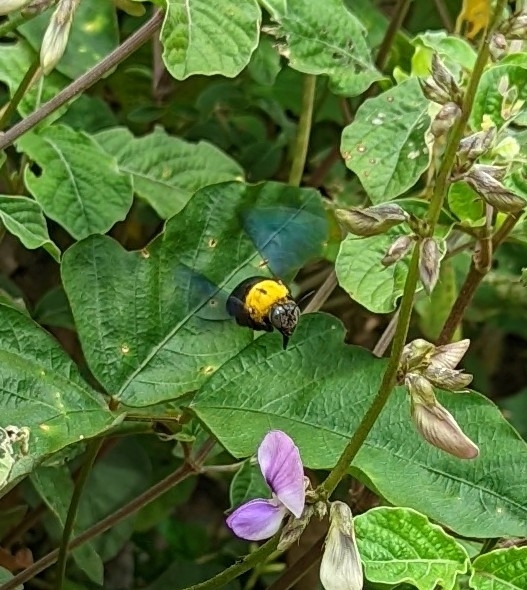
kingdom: Animalia
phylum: Arthropoda
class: Insecta
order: Hymenoptera
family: Apidae
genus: Xylocopa
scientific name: Xylocopa minor
